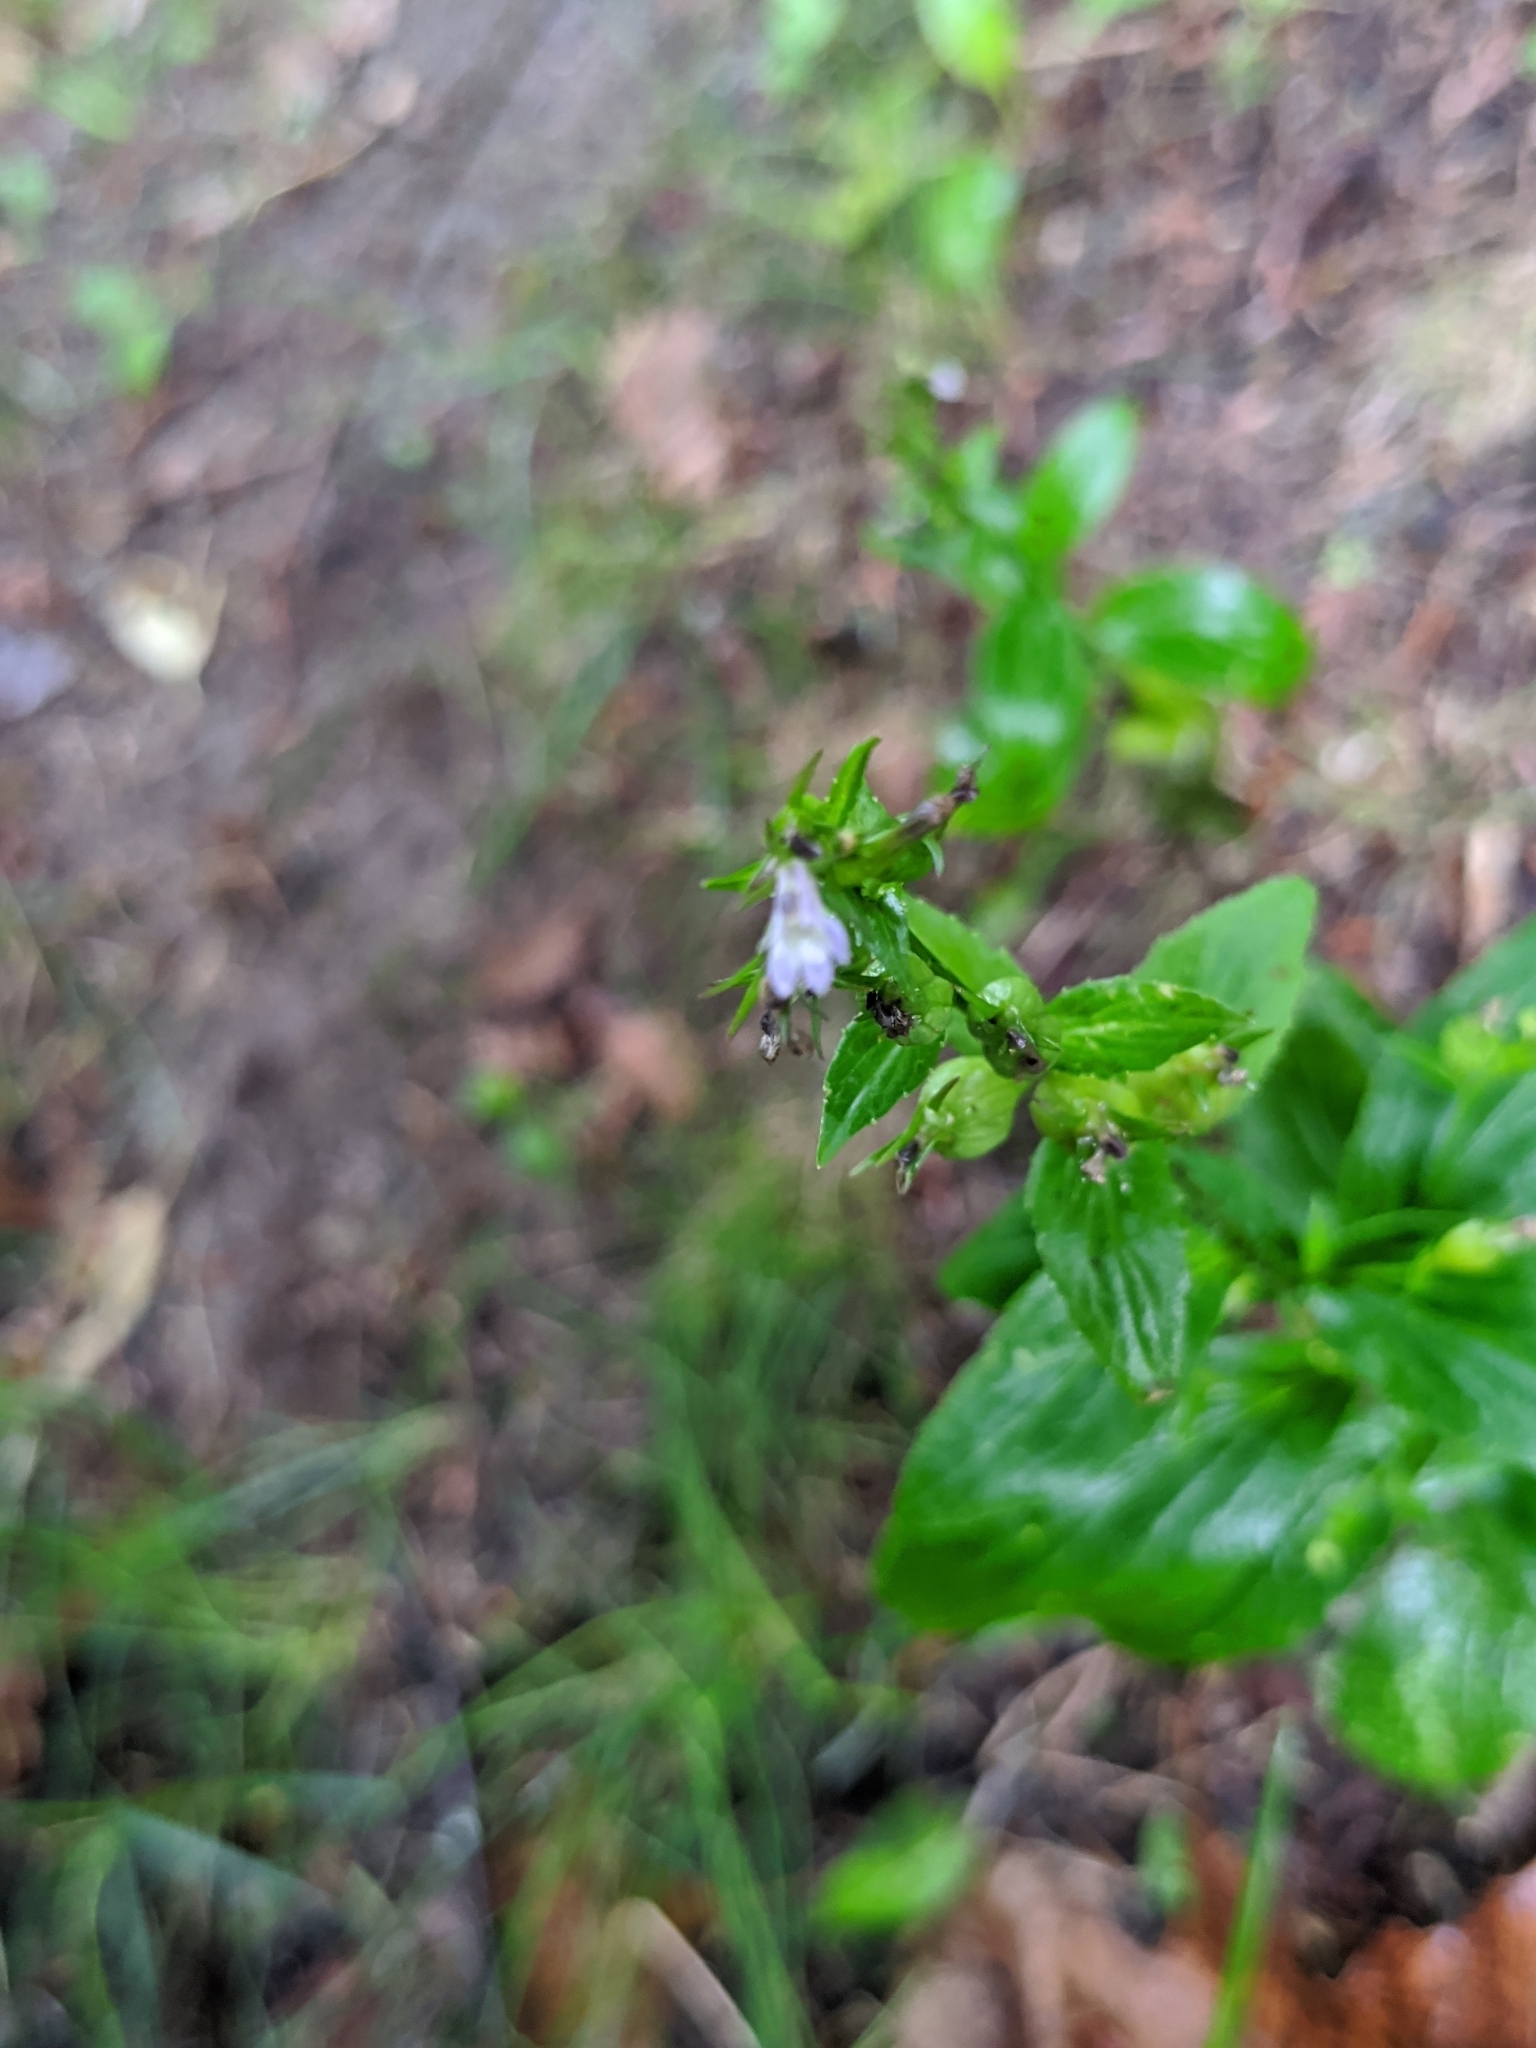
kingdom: Plantae
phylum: Tracheophyta
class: Magnoliopsida
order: Asterales
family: Campanulaceae
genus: Lobelia
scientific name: Lobelia inflata
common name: Indian tobacco
